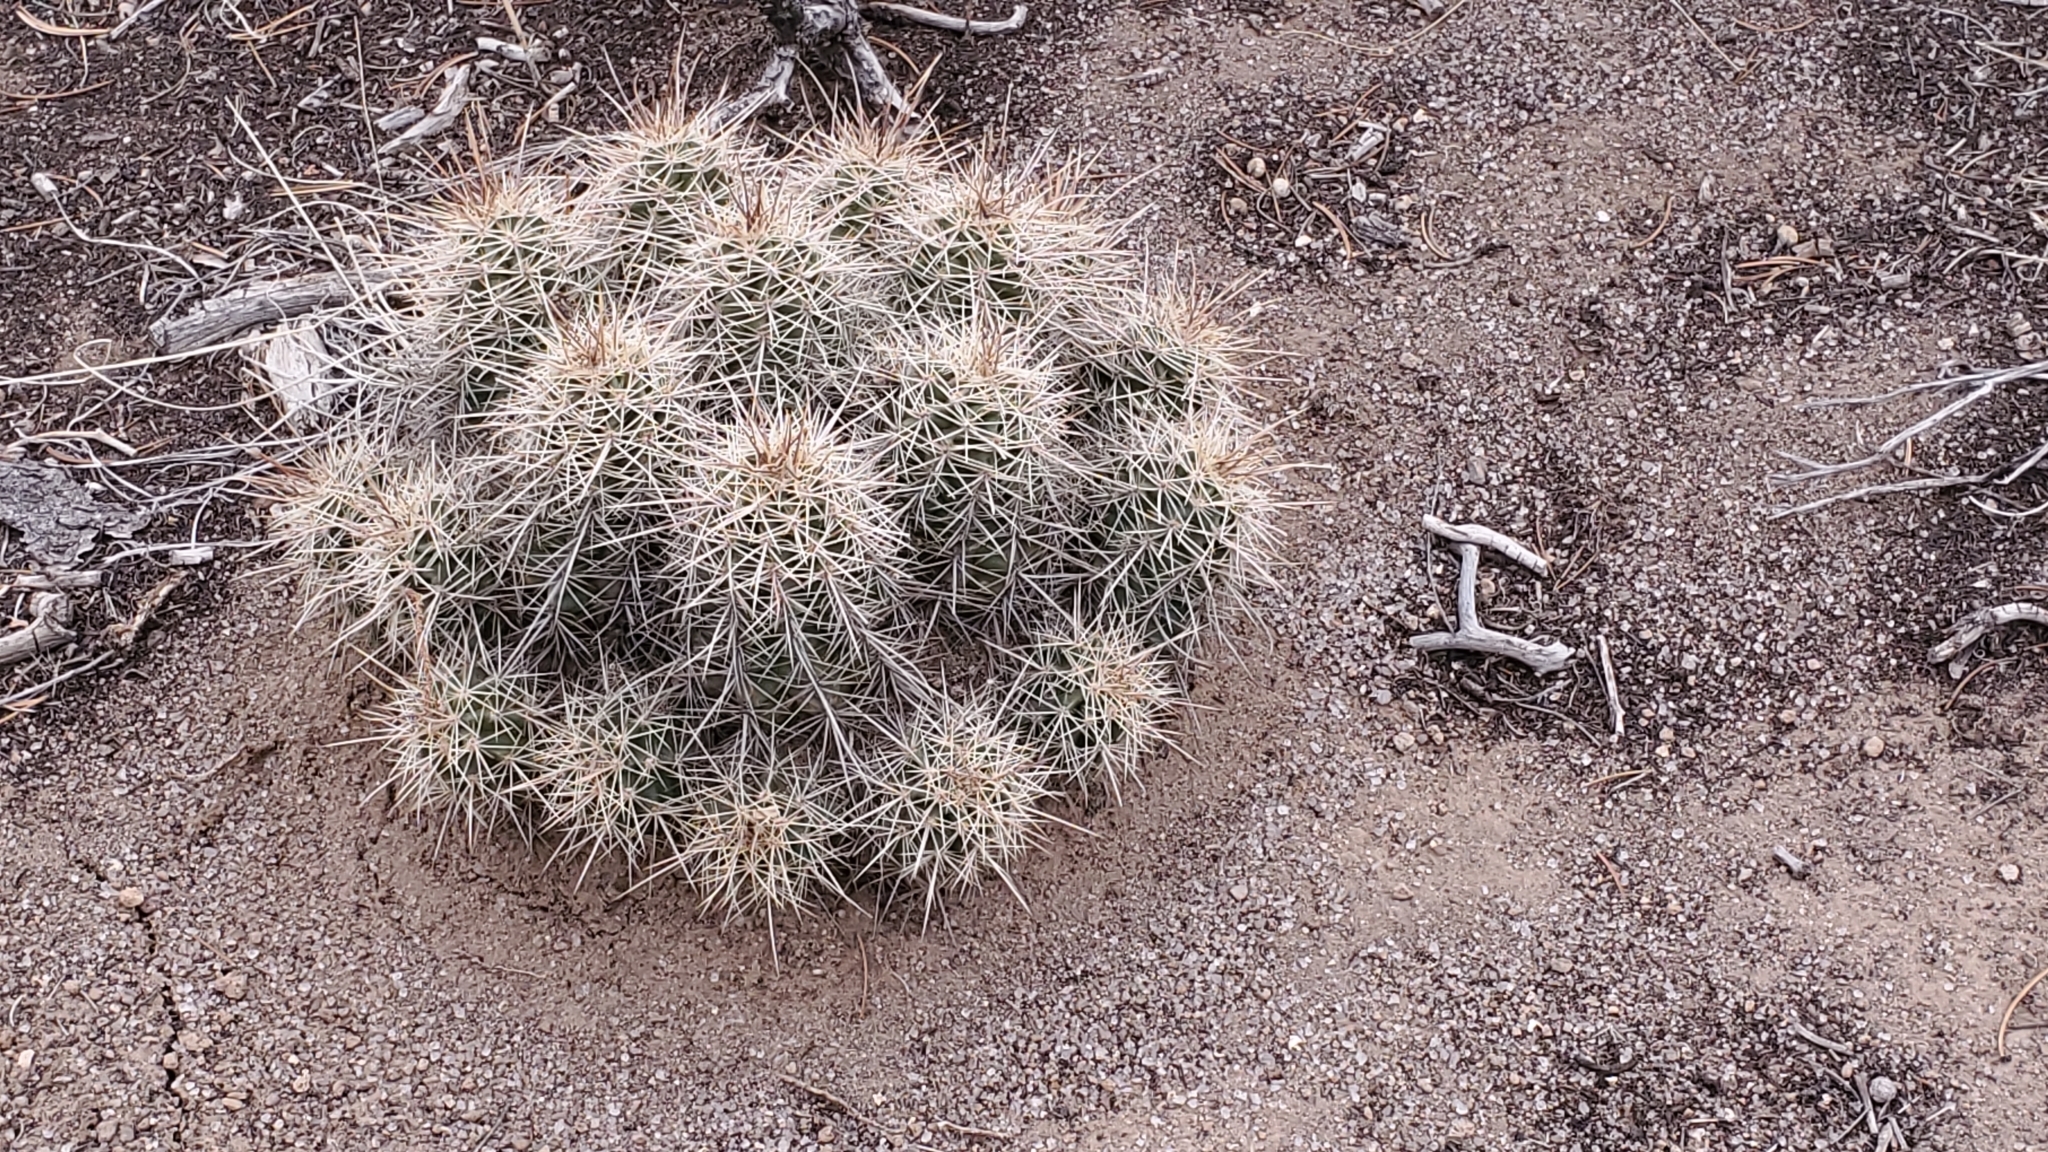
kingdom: Plantae
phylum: Tracheophyta
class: Magnoliopsida
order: Caryophyllales
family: Cactaceae
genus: Echinocereus
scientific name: Echinocereus coccineus
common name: Scarlet hedgehog cactus
